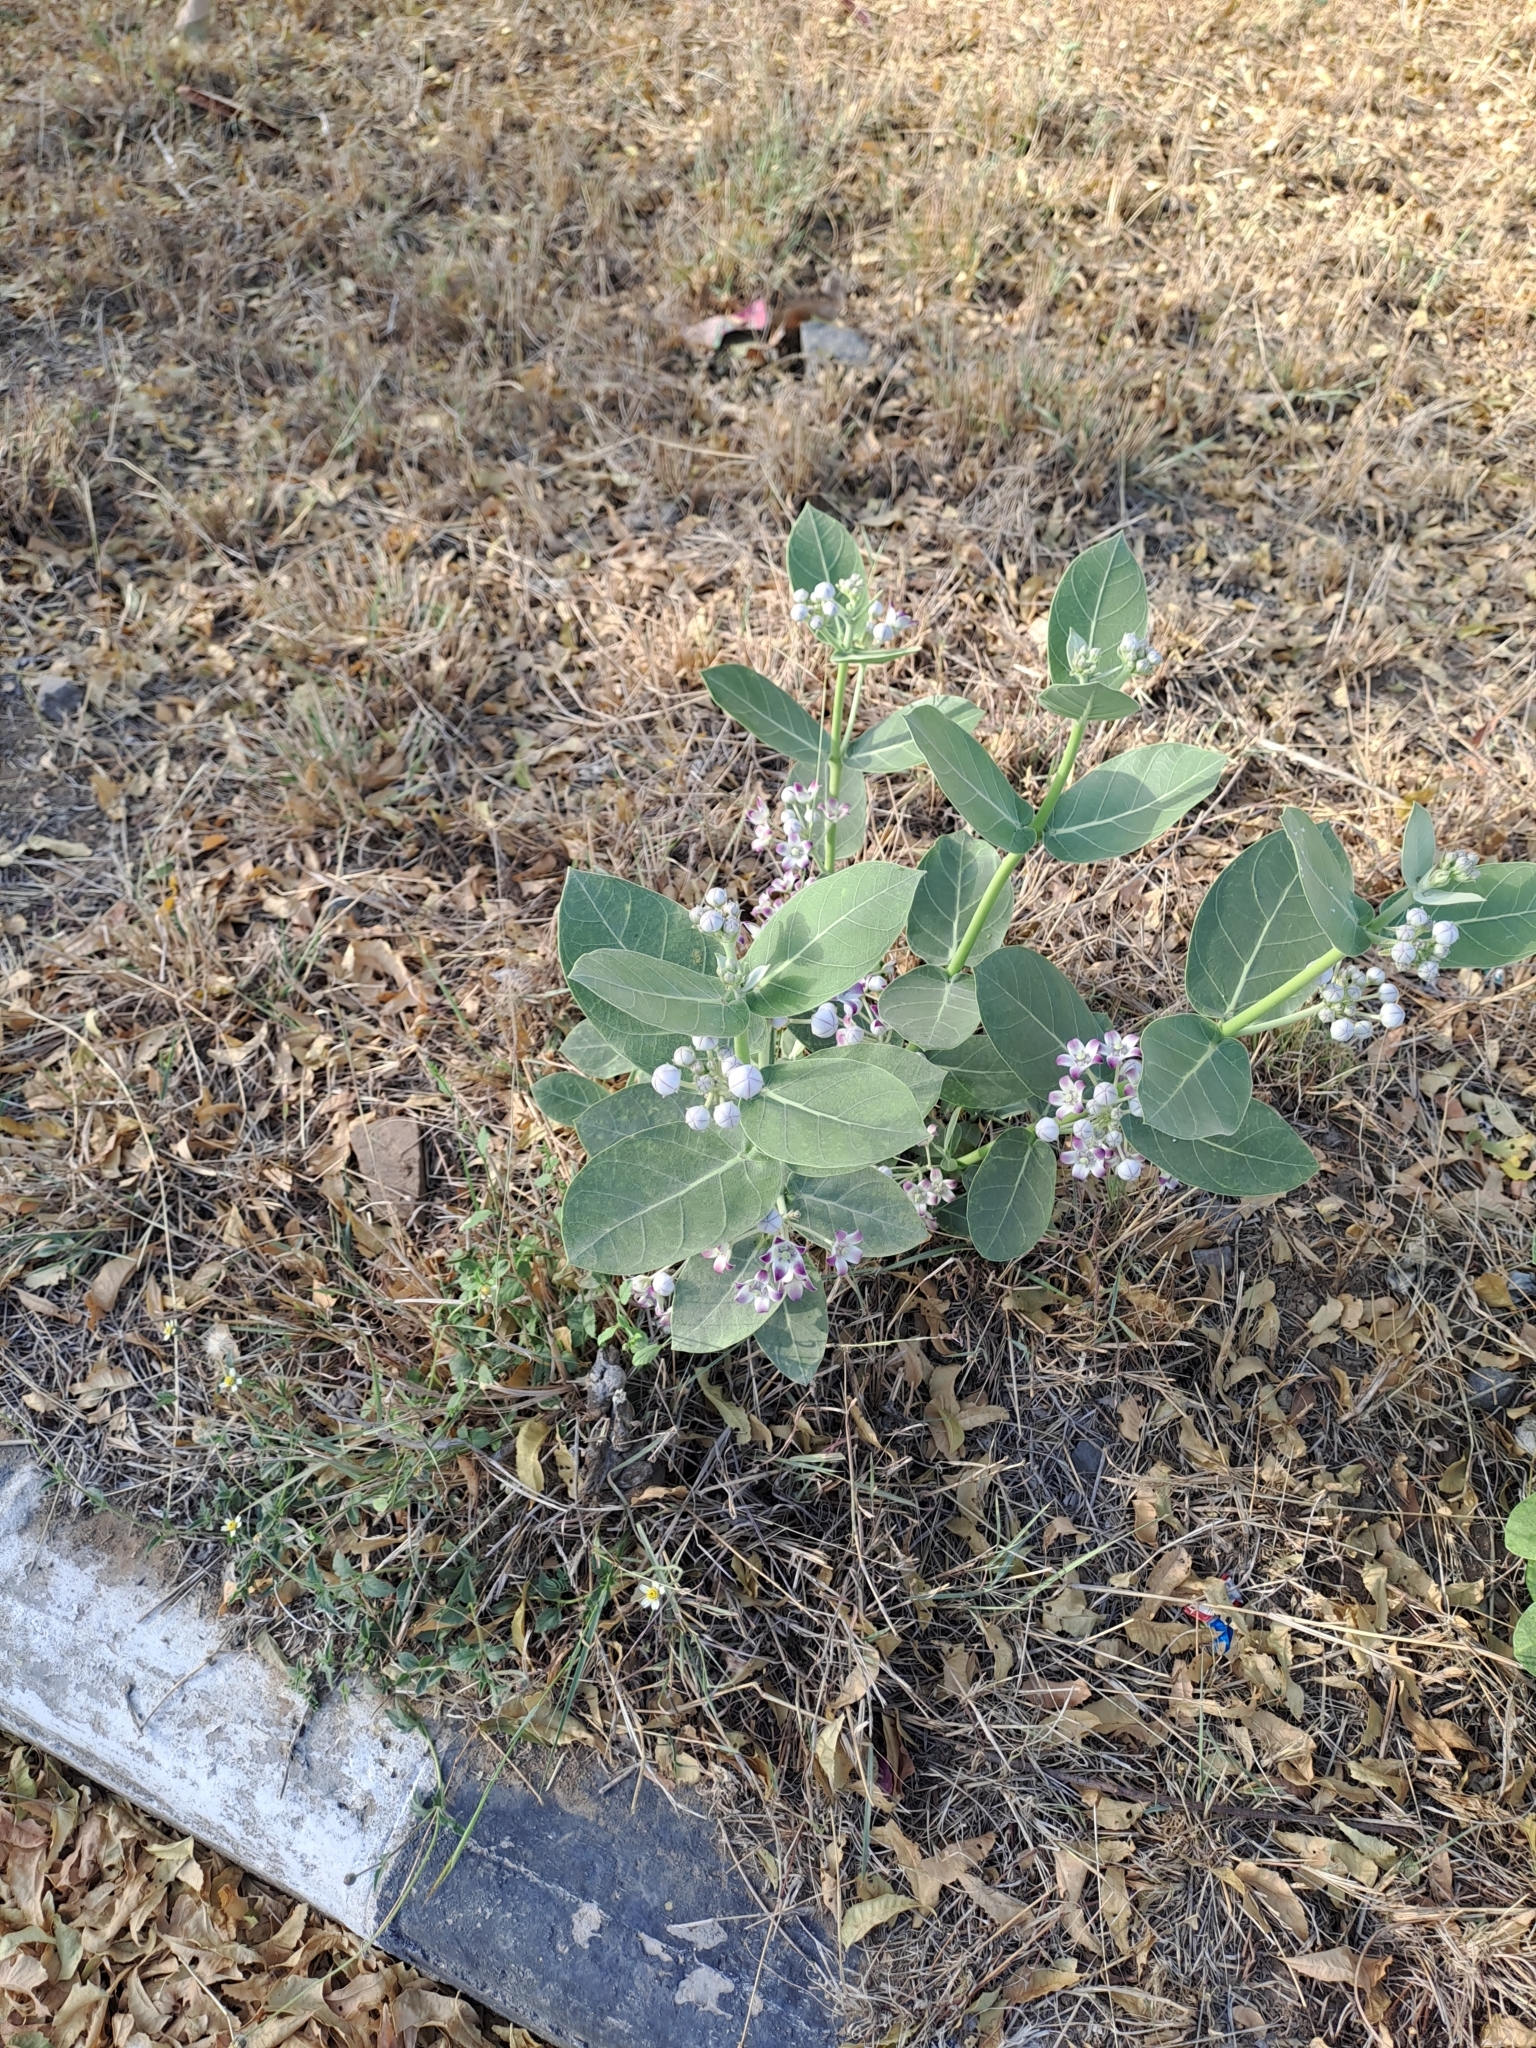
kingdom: Plantae
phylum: Tracheophyta
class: Magnoliopsida
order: Gentianales
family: Apocynaceae
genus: Calotropis
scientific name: Calotropis procera
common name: Roostertree
